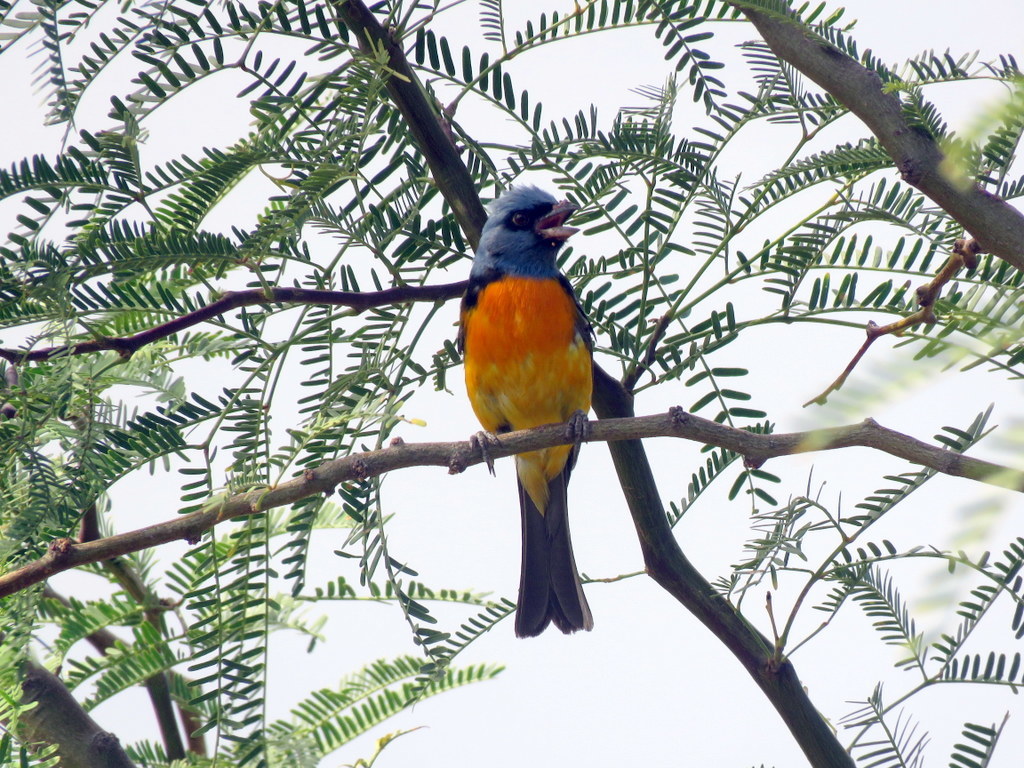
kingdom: Animalia
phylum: Chordata
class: Aves
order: Passeriformes
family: Thraupidae
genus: Rauenia
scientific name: Rauenia bonariensis
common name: Blue-and-yellow tanager
